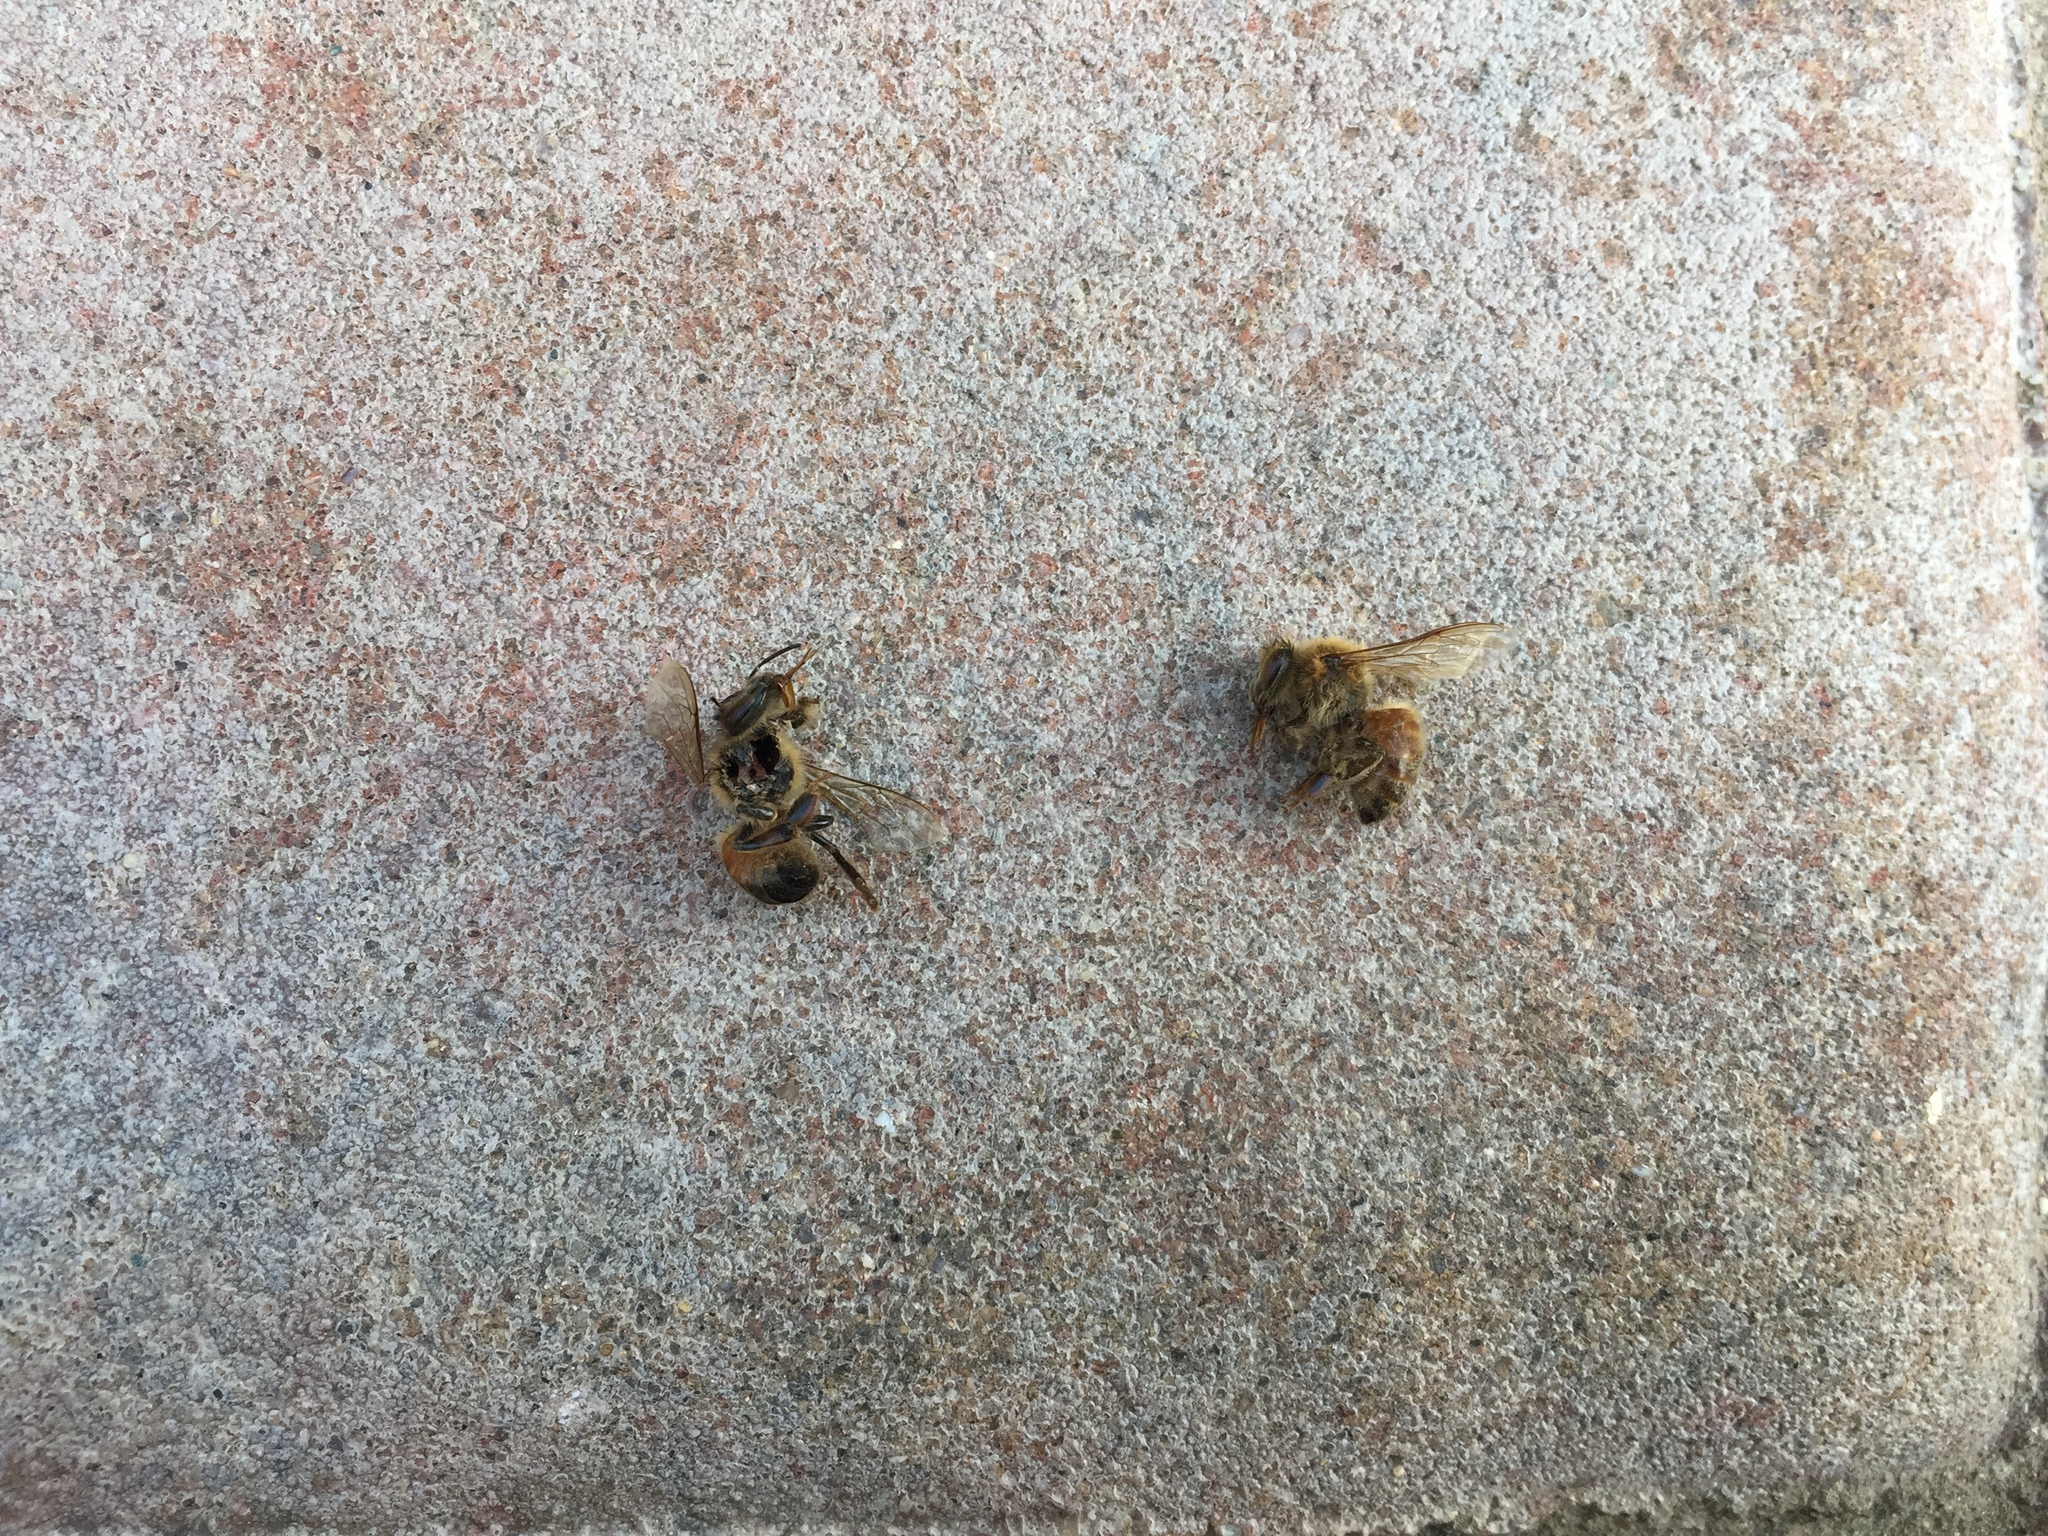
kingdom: Animalia
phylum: Arthropoda
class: Insecta
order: Hymenoptera
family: Apidae
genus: Apis
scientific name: Apis mellifera
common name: Honey bee
